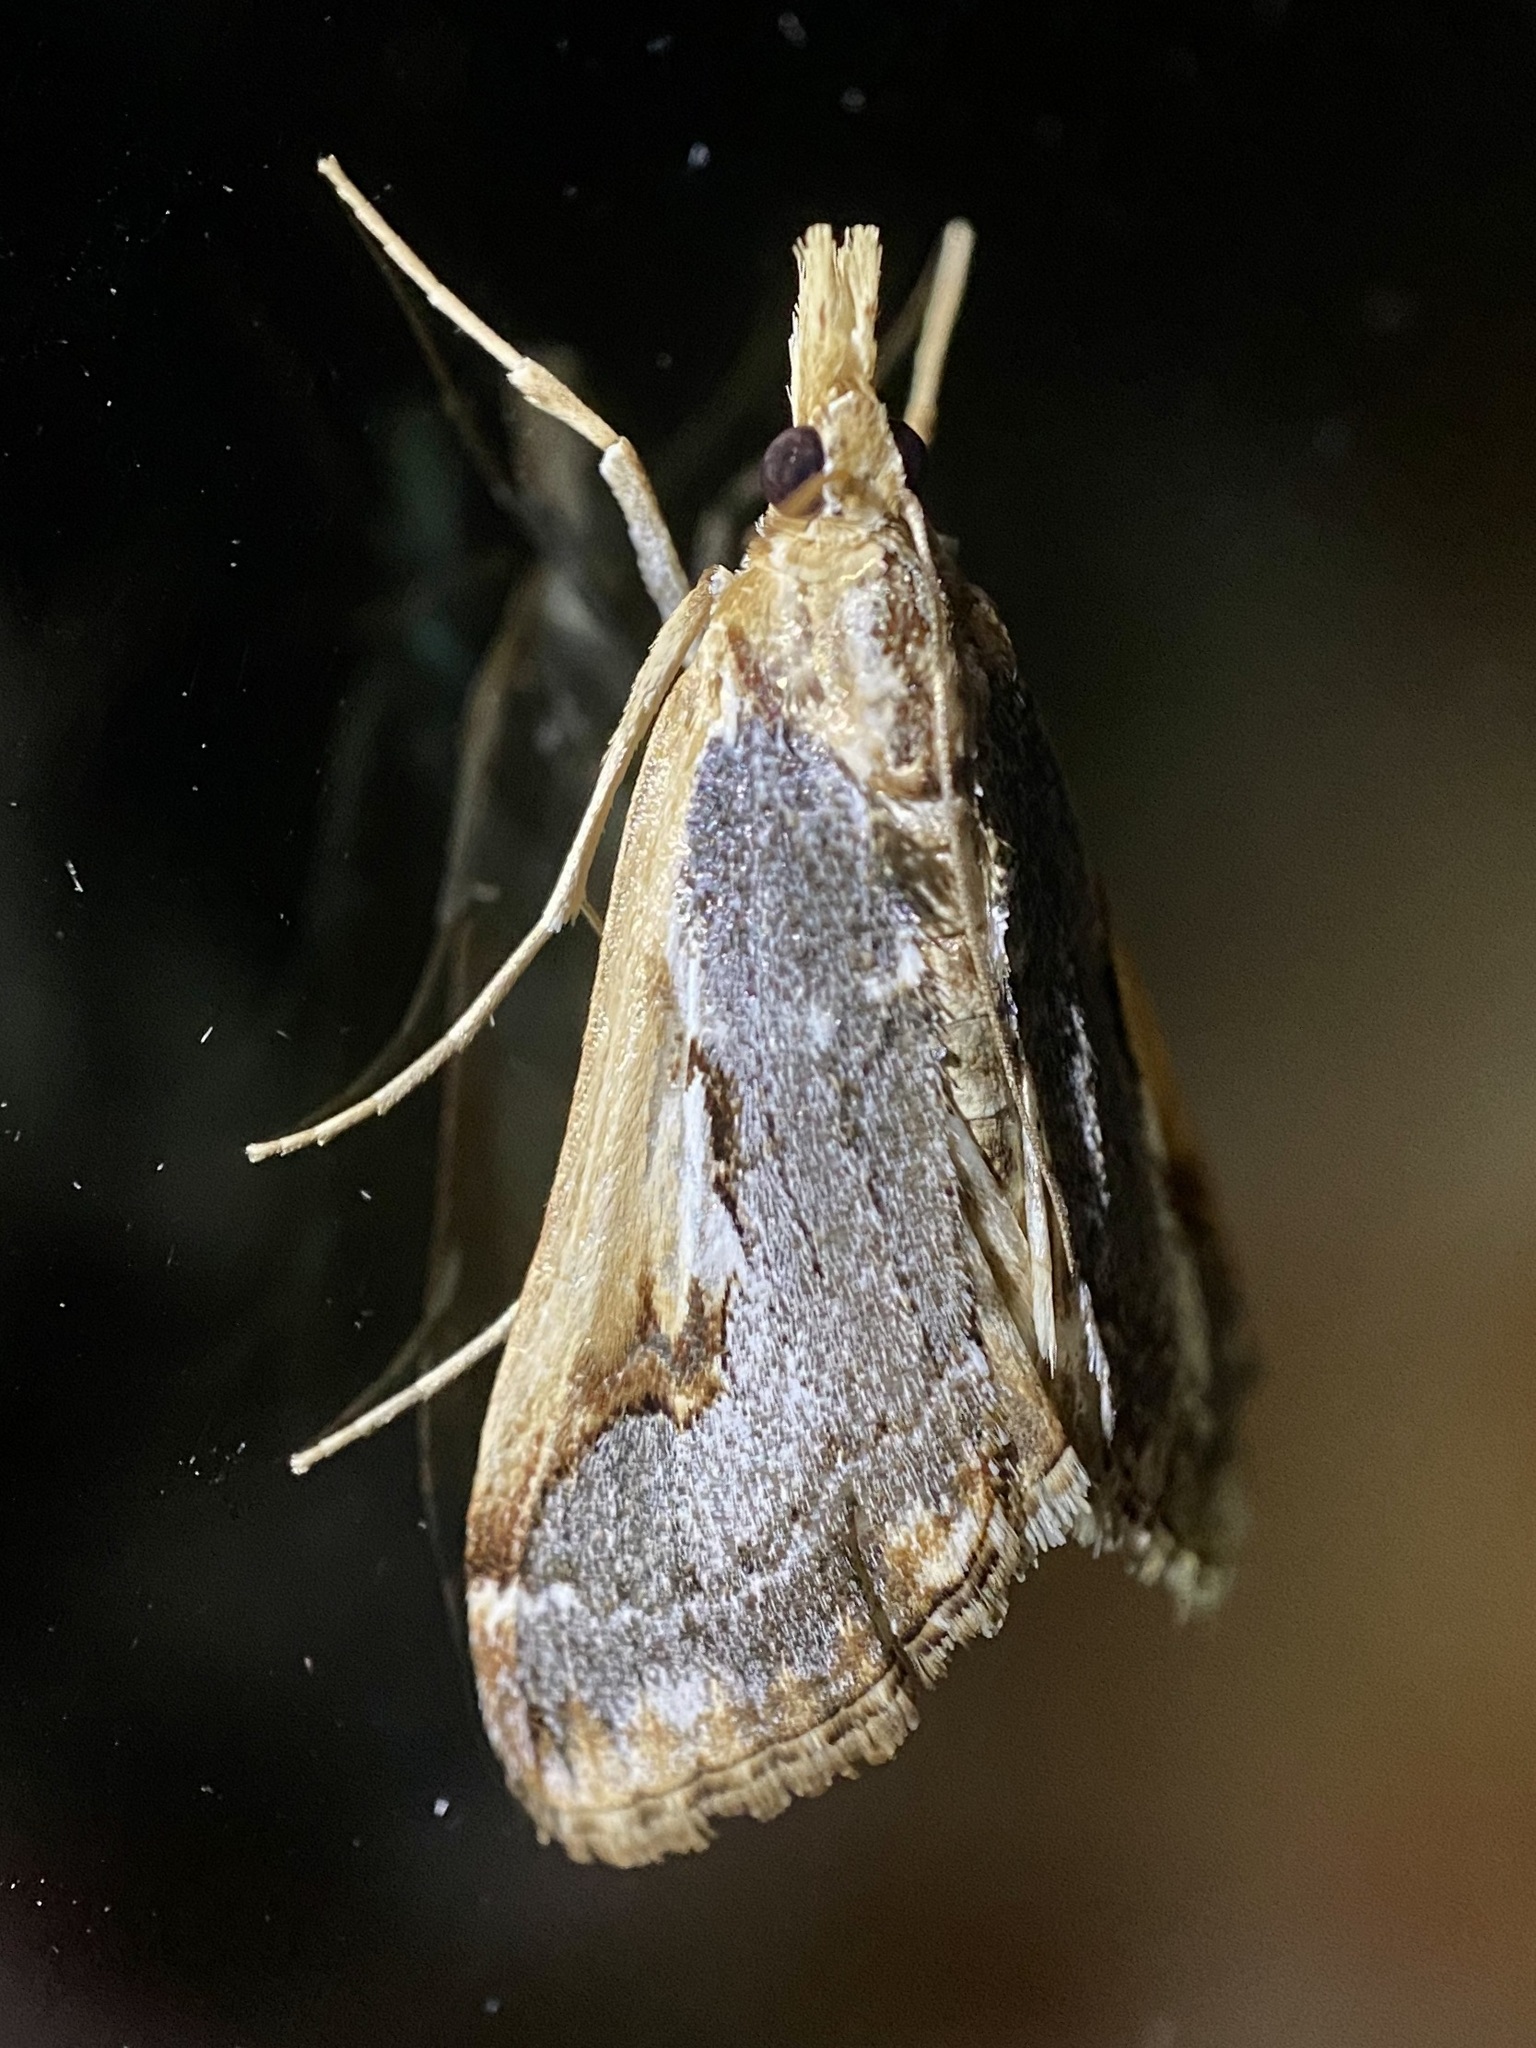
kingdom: Animalia
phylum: Arthropoda
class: Insecta
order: Lepidoptera
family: Crambidae
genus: Loxostege
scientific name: Loxostege albiceralis
